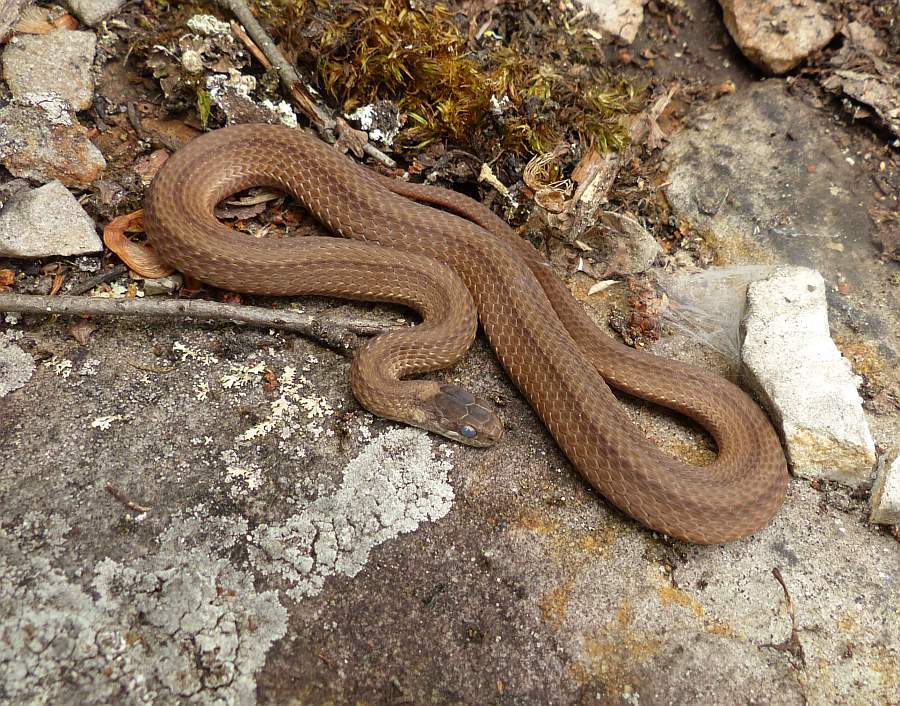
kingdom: Animalia
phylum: Chordata
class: Squamata
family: Colubridae
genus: Storeria
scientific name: Storeria occipitomaculata
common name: Redbelly snake
